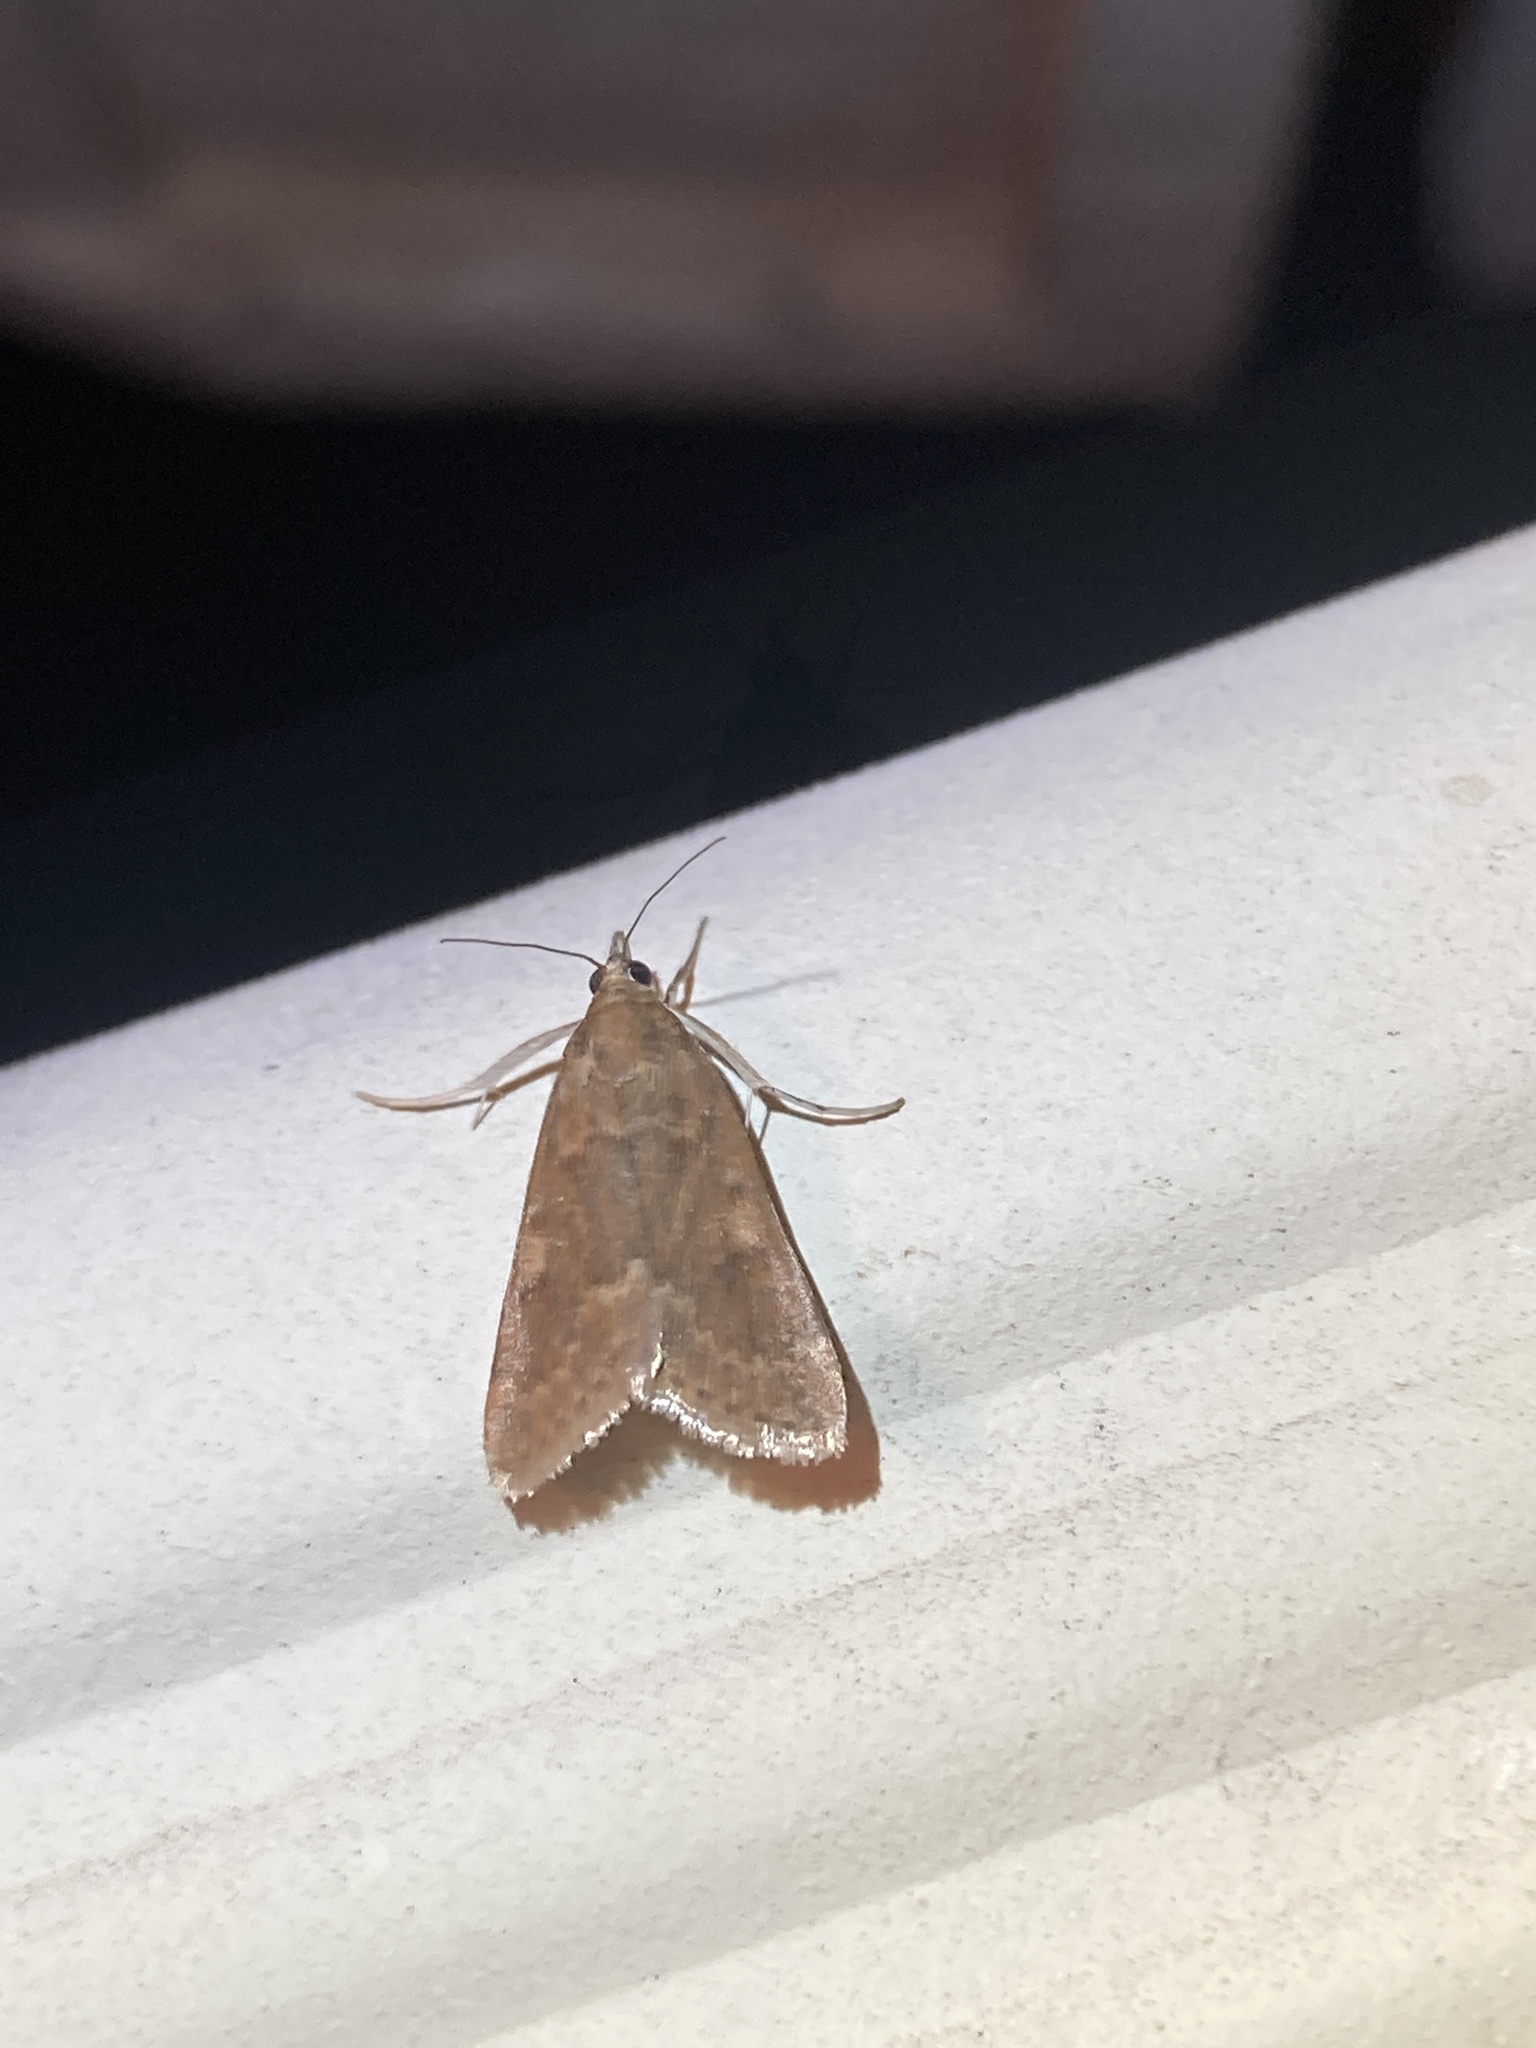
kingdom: Animalia
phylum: Arthropoda
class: Insecta
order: Lepidoptera
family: Crambidae
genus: Achyra
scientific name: Achyra rantalis
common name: Garden webworm
